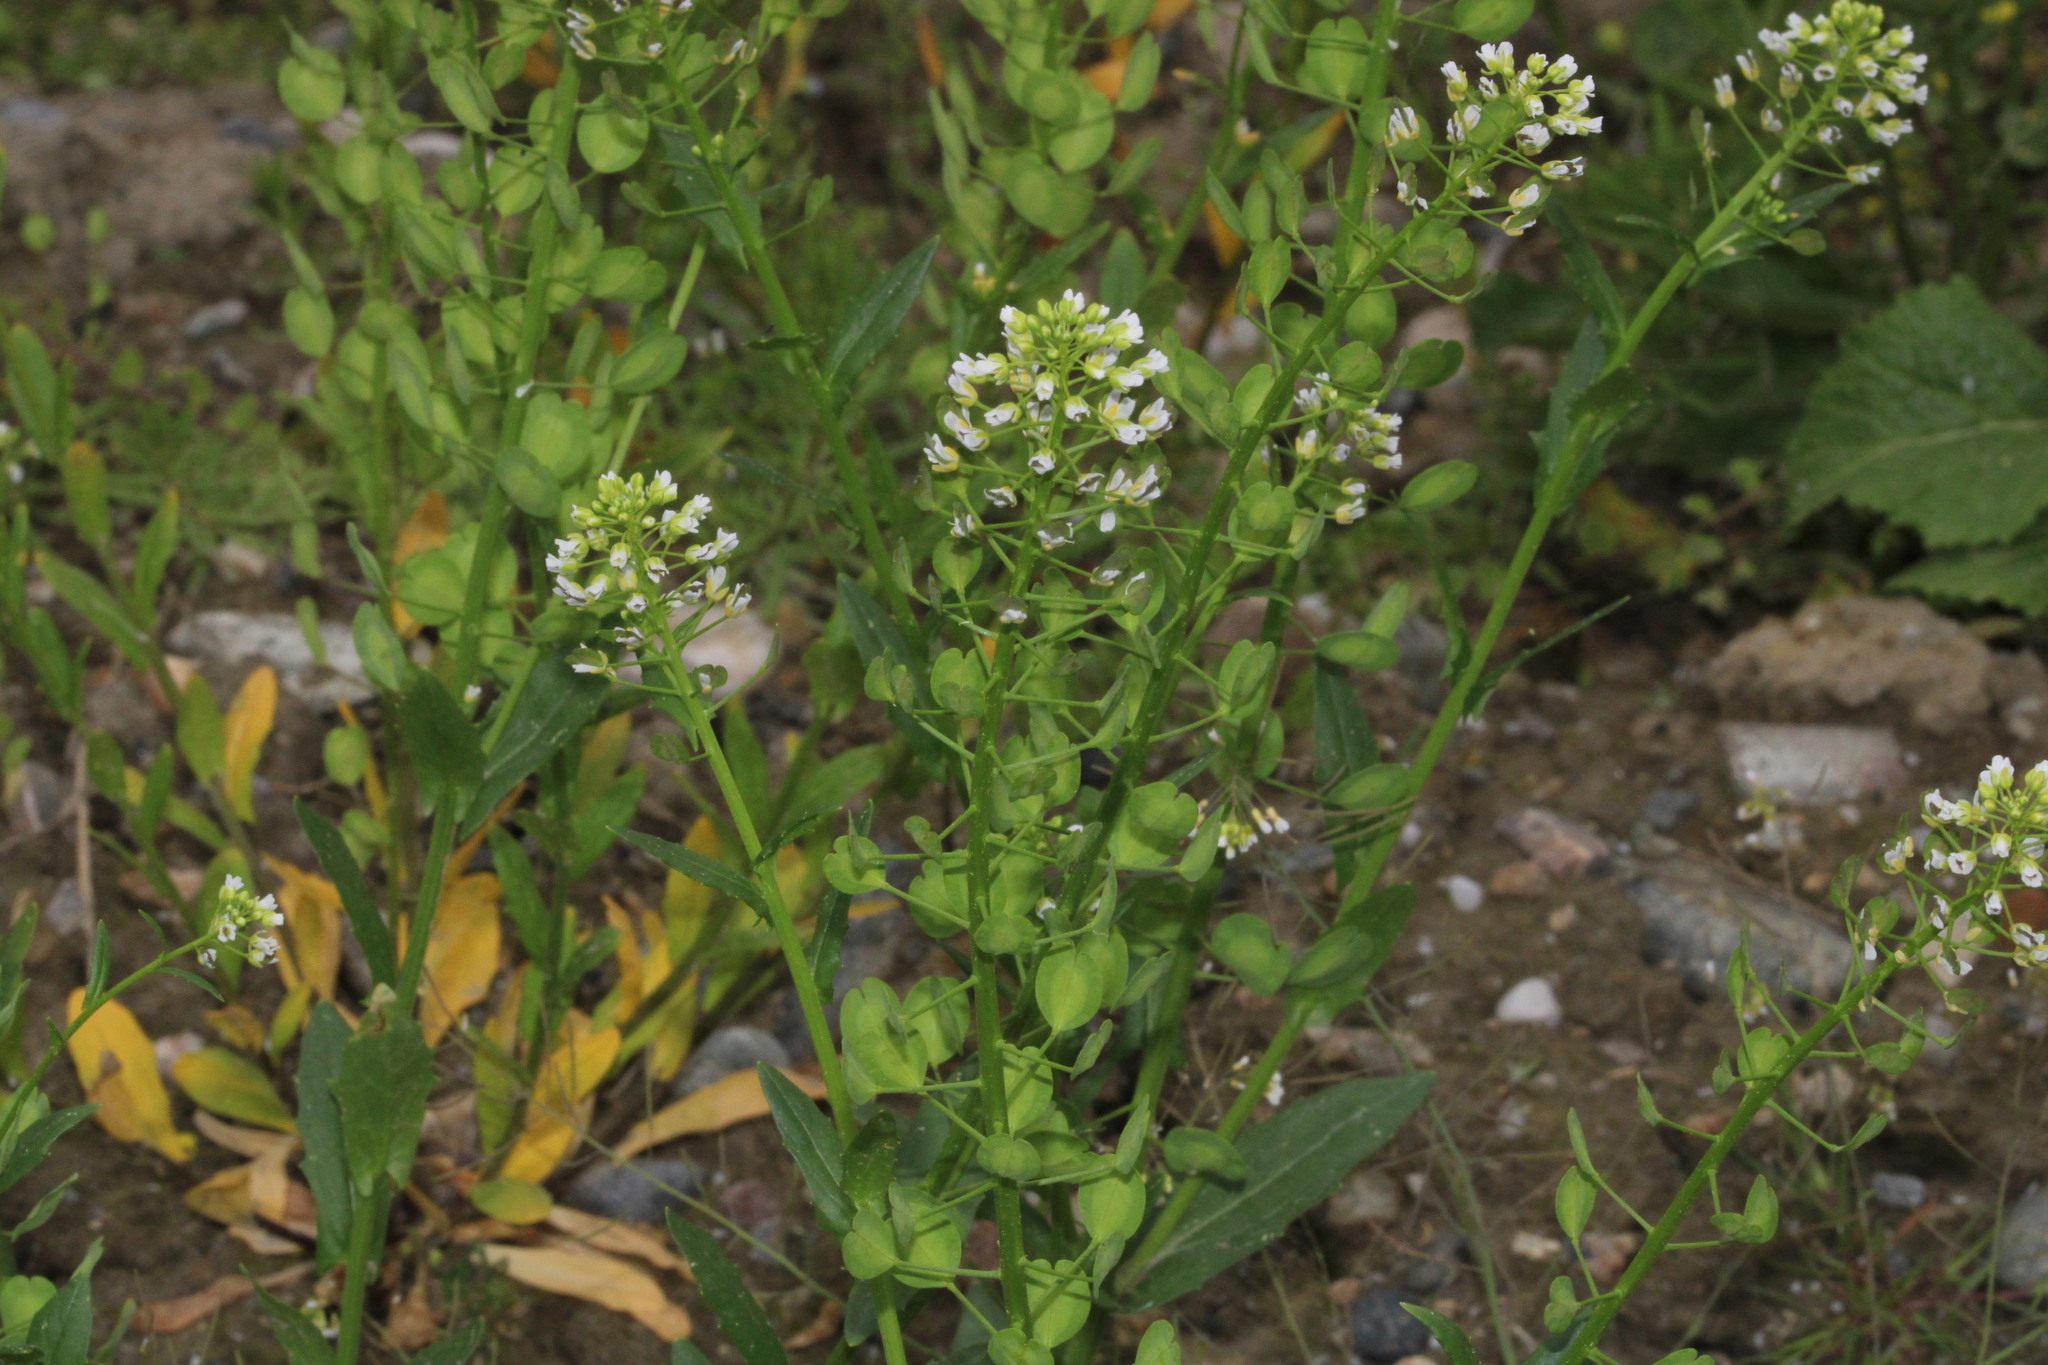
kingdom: Plantae
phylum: Tracheophyta
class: Magnoliopsida
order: Brassicales
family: Brassicaceae
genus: Thlaspi
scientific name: Thlaspi arvense
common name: Field pennycress
